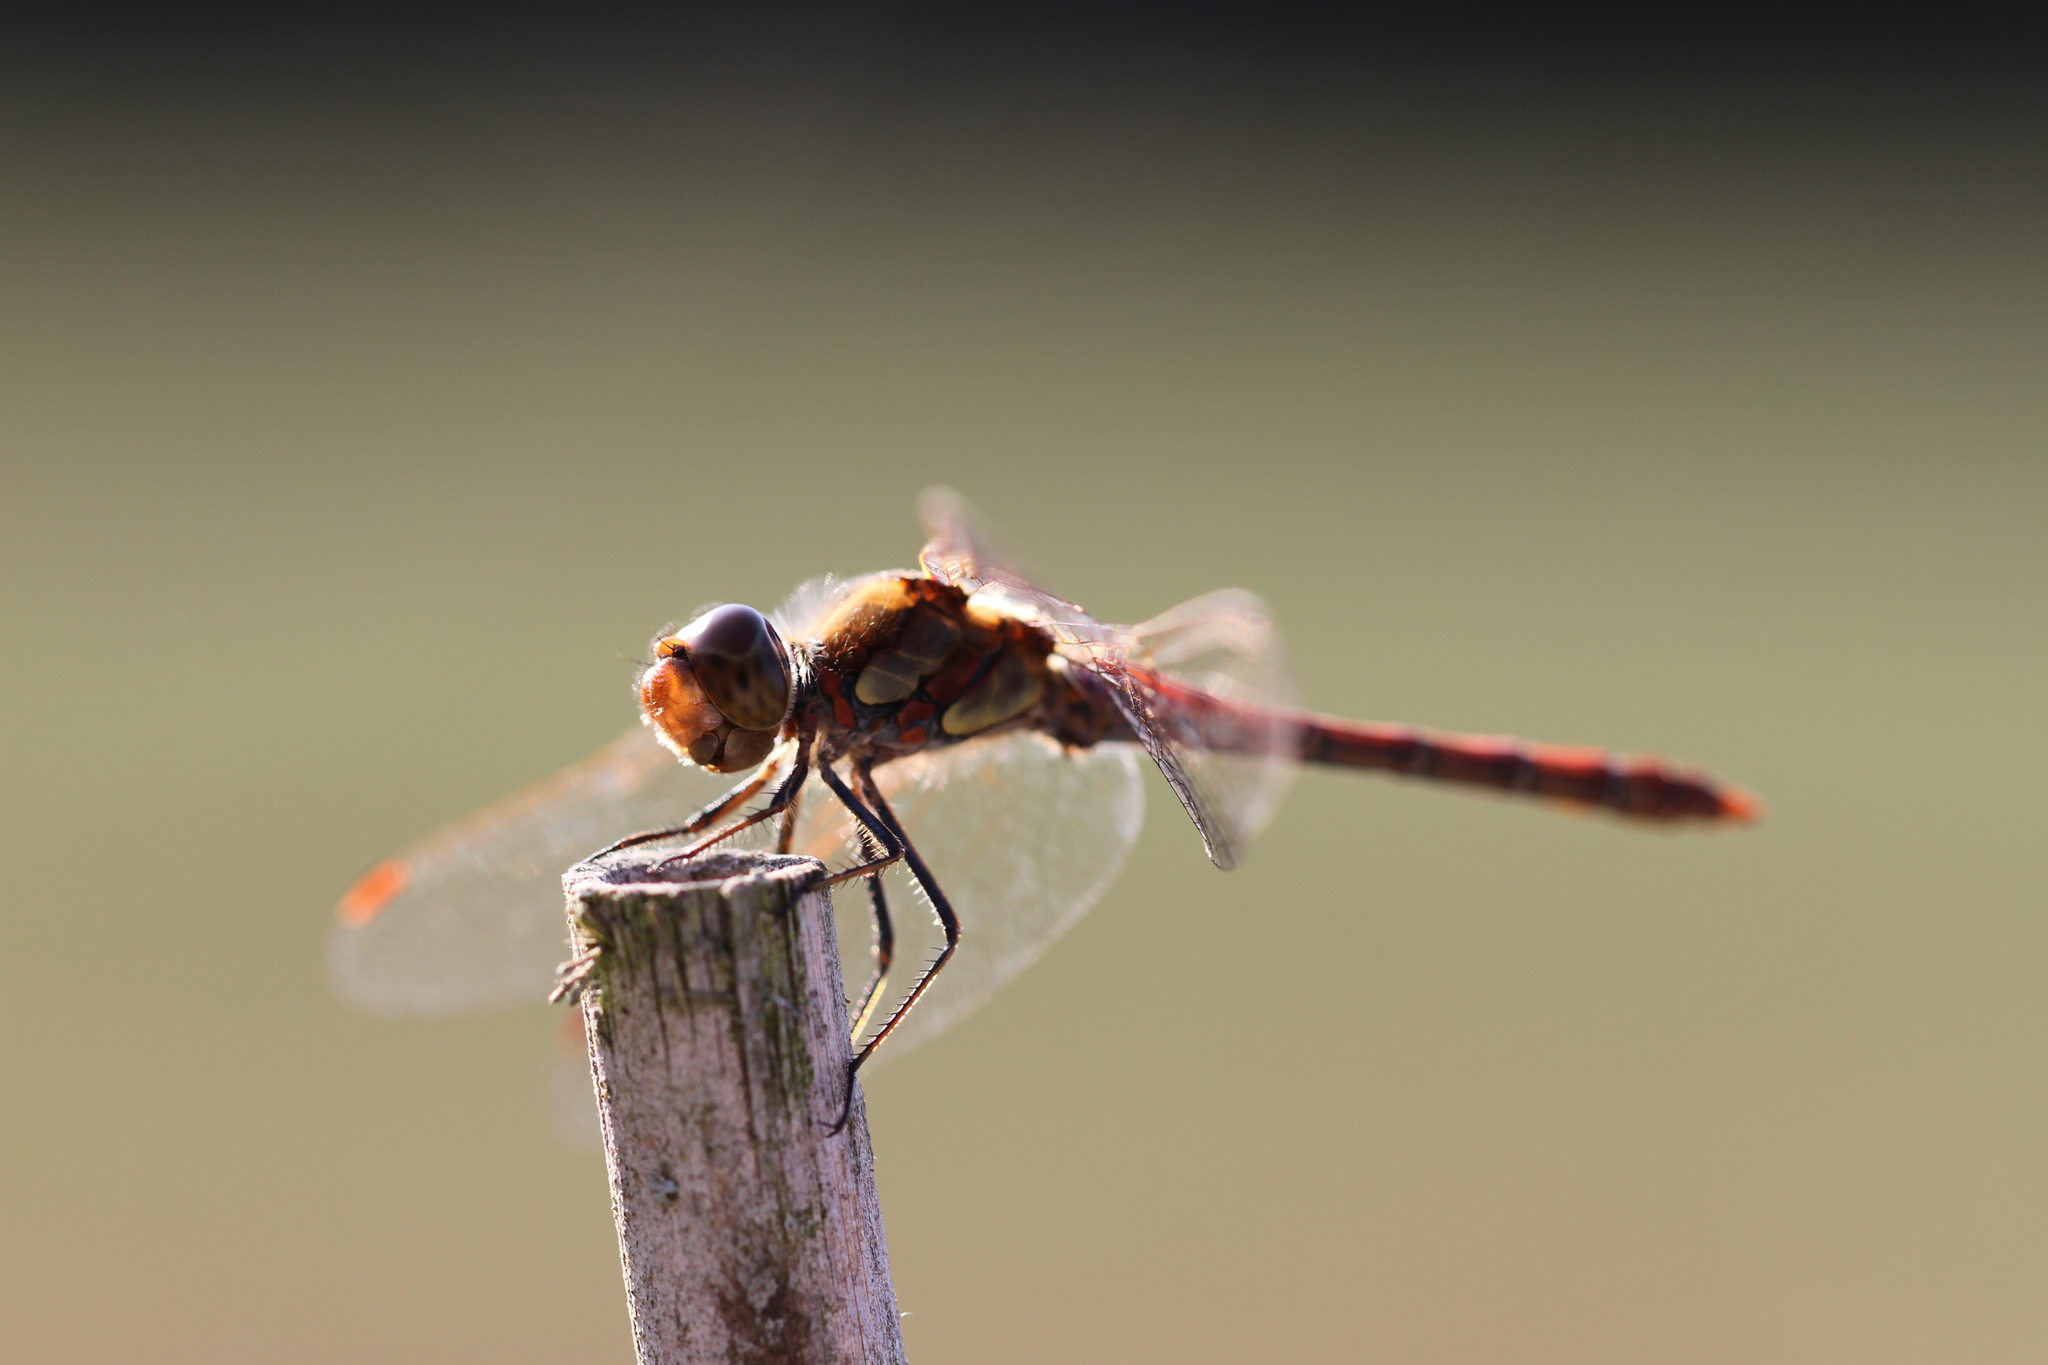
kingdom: Animalia
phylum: Arthropoda
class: Insecta
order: Odonata
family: Libellulidae
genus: Sympetrum
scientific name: Sympetrum striolatum
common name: Common darter
